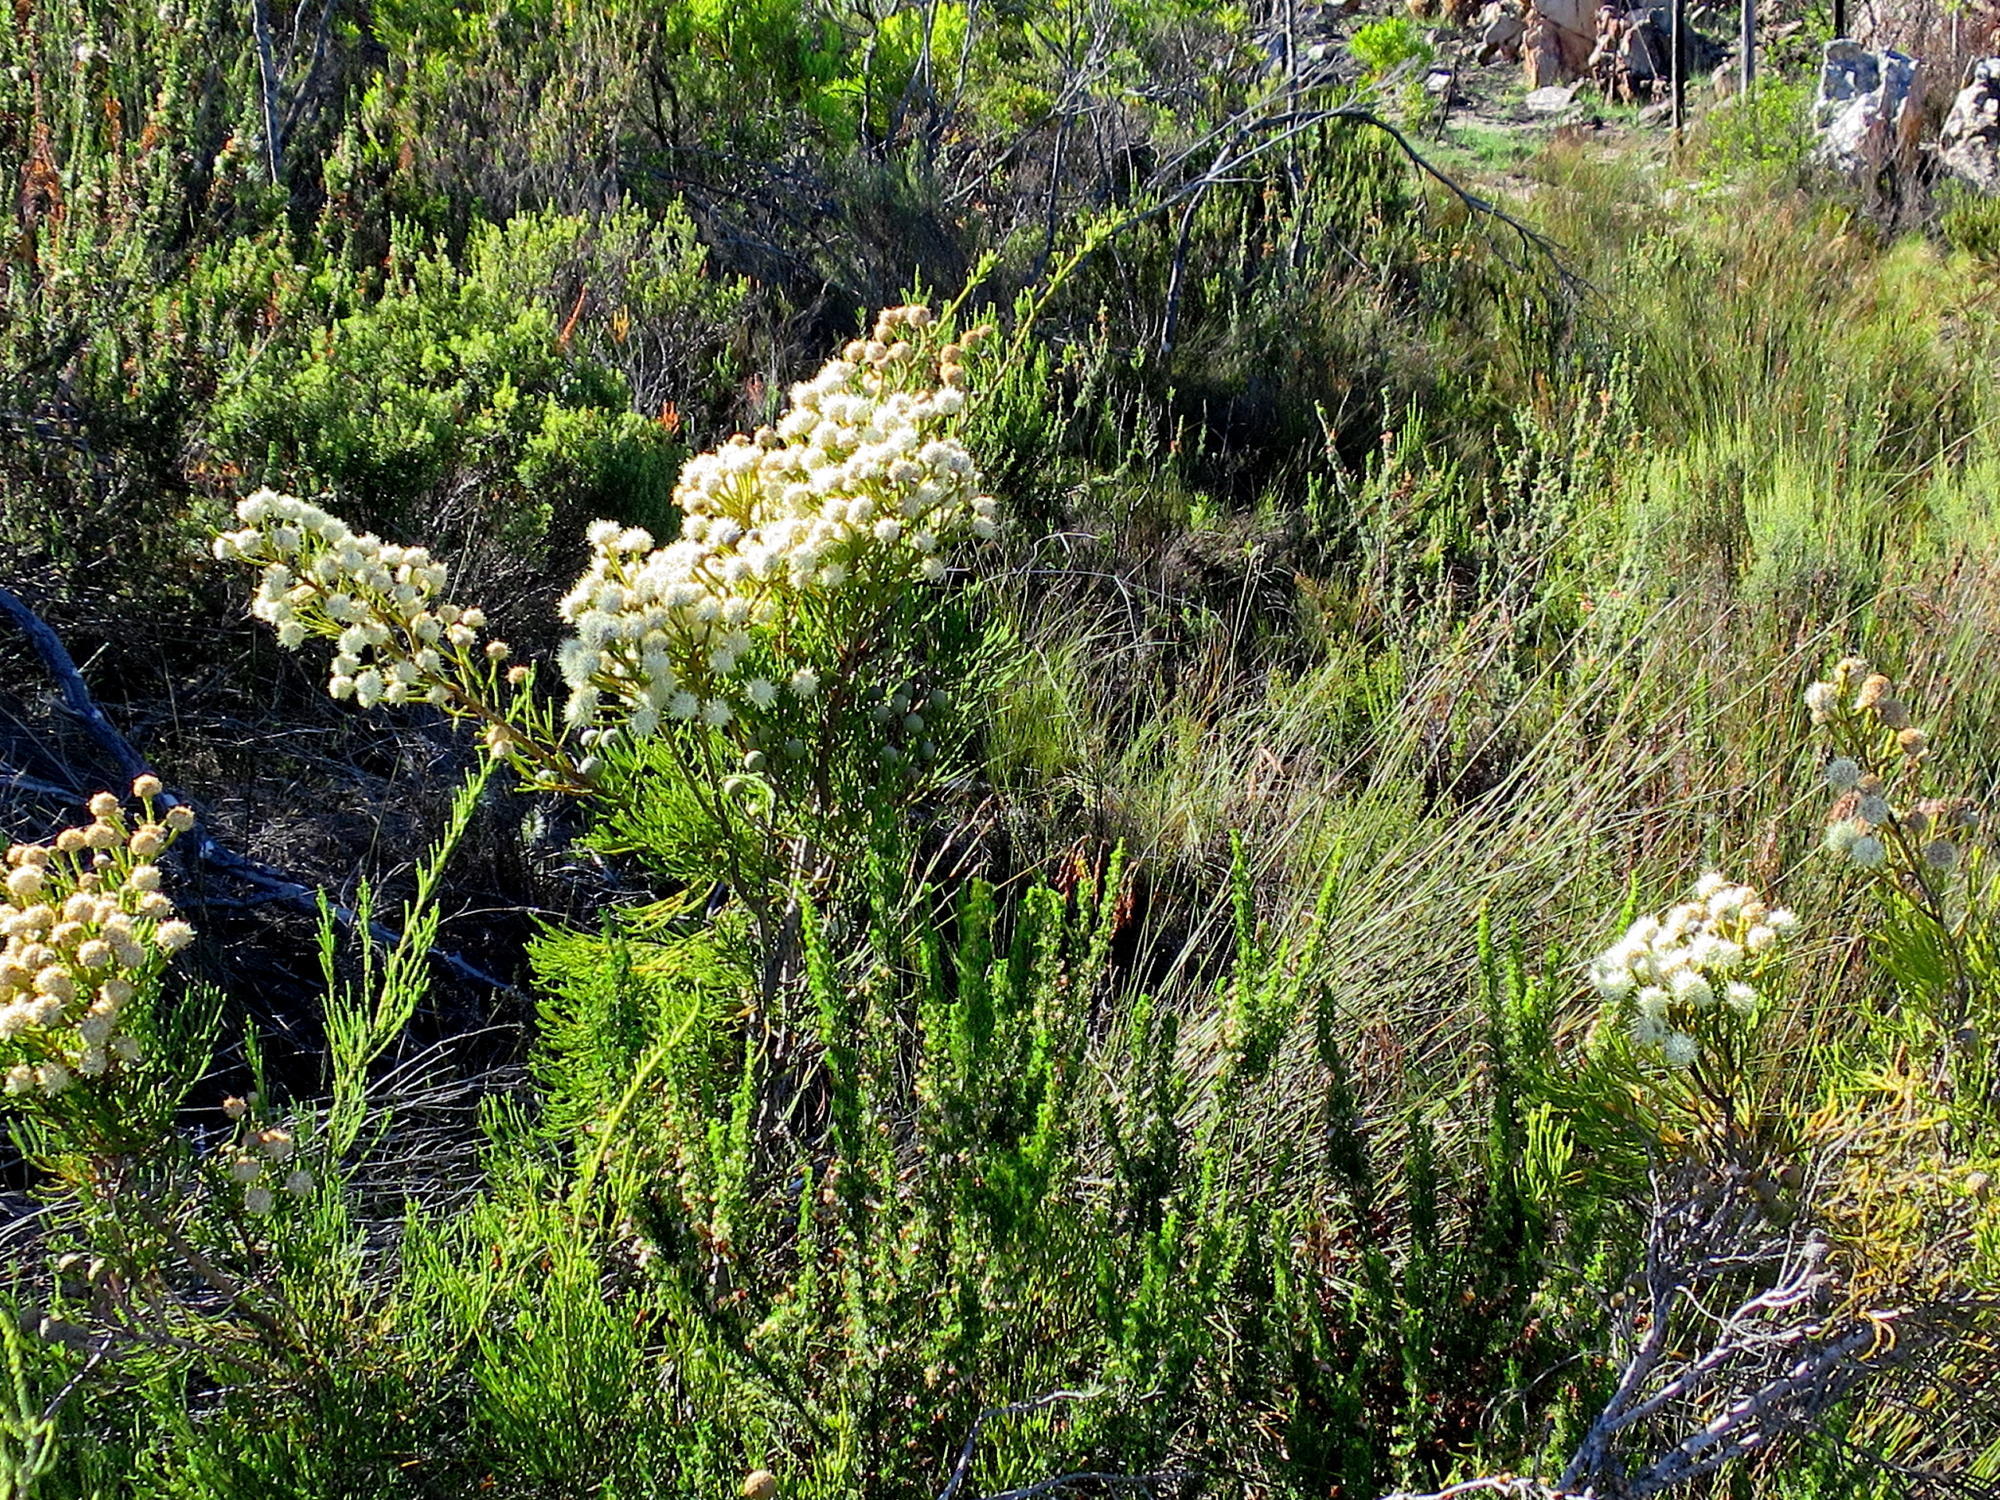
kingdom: Plantae
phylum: Tracheophyta
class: Magnoliopsida
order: Bruniales
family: Bruniaceae
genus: Brunia
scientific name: Brunia noduliflora
